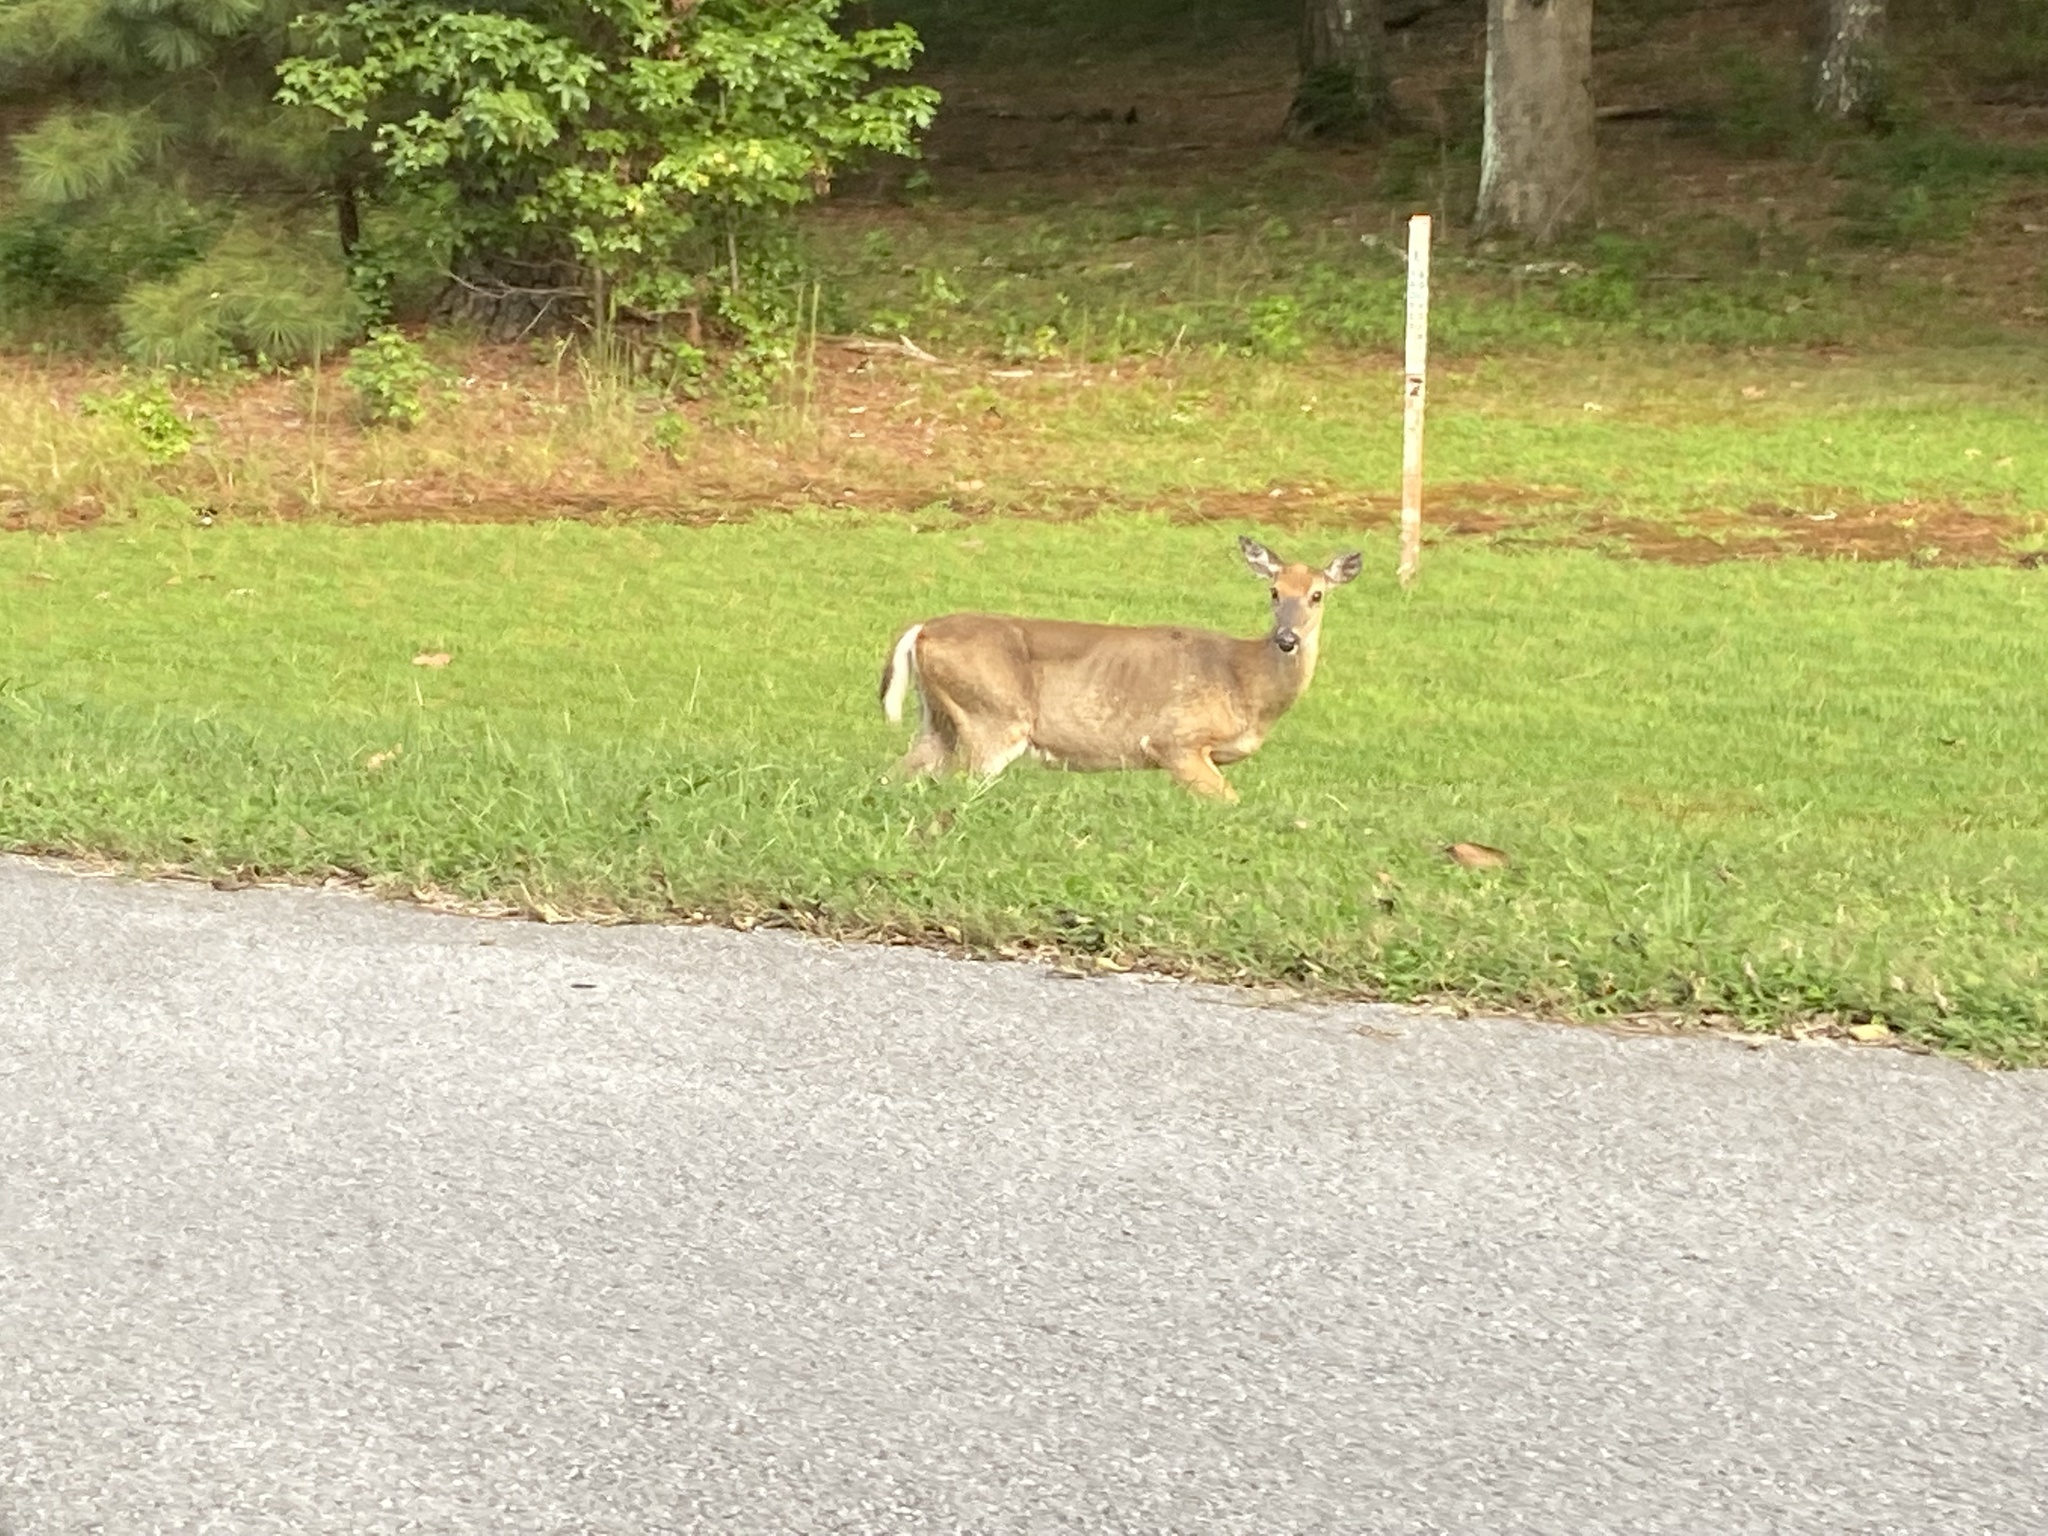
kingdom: Animalia
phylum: Chordata
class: Mammalia
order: Artiodactyla
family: Cervidae
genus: Odocoileus
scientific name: Odocoileus virginianus
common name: White-tailed deer
